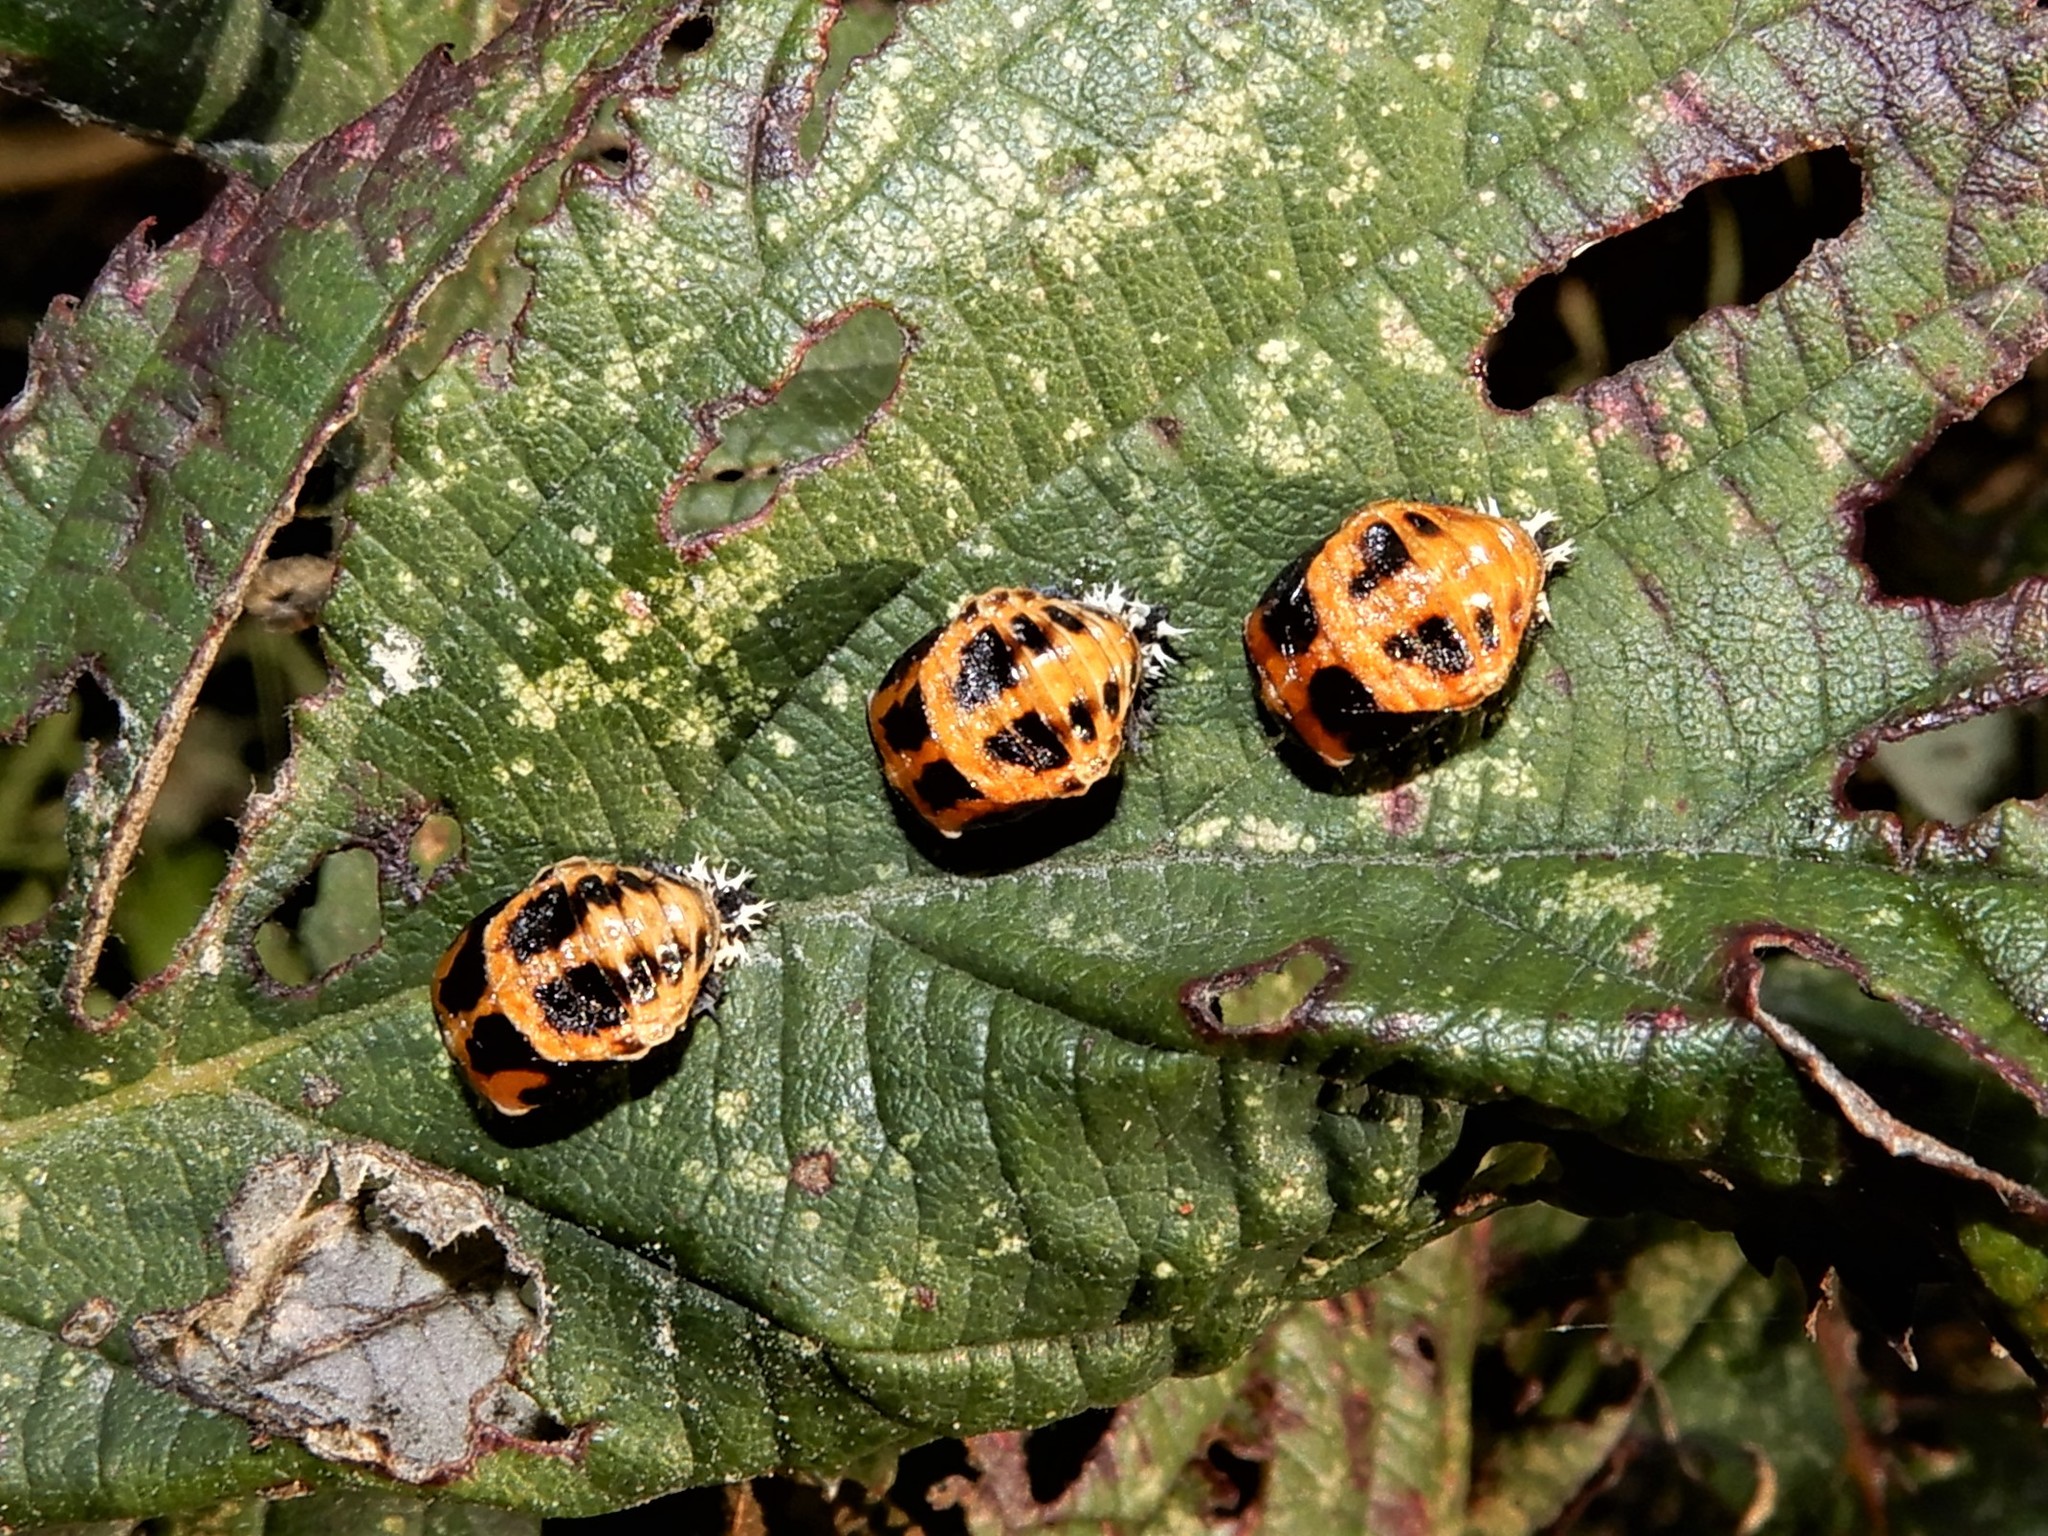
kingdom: Animalia
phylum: Arthropoda
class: Insecta
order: Coleoptera
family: Coccinellidae
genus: Harmonia
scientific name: Harmonia axyridis
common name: Harlequin ladybird
